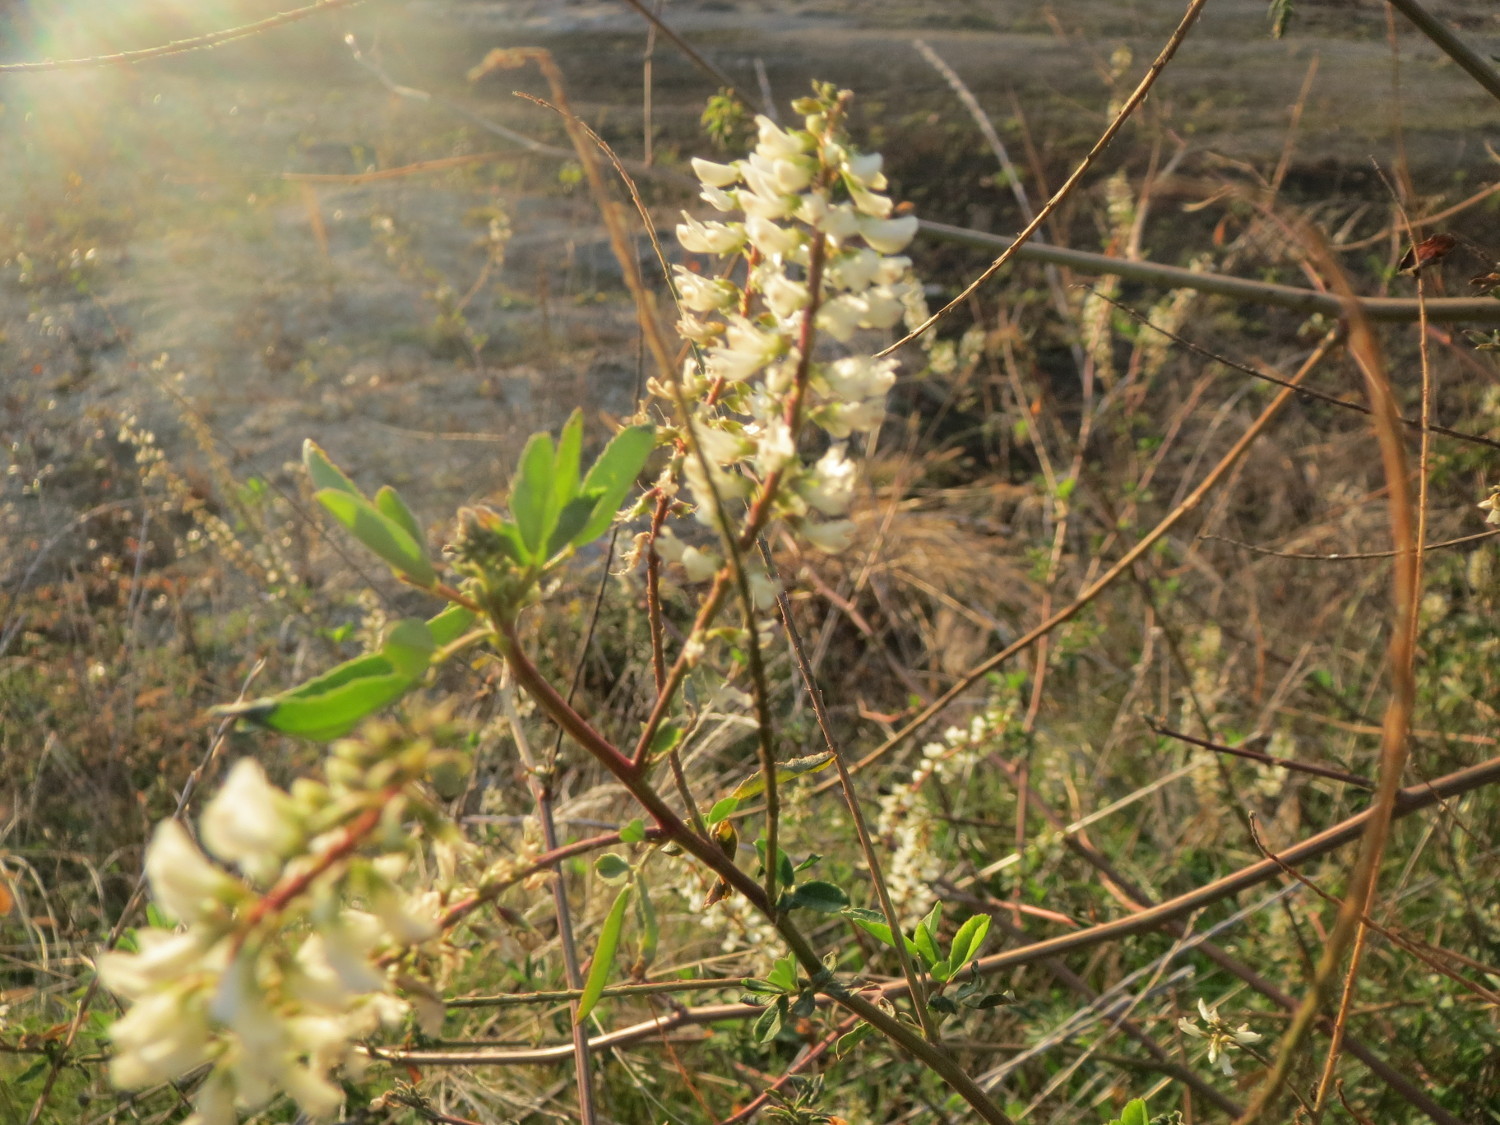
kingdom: Plantae
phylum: Tracheophyta
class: Magnoliopsida
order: Fabales
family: Fabaceae
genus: Melilotus
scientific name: Melilotus albus
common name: White melilot
